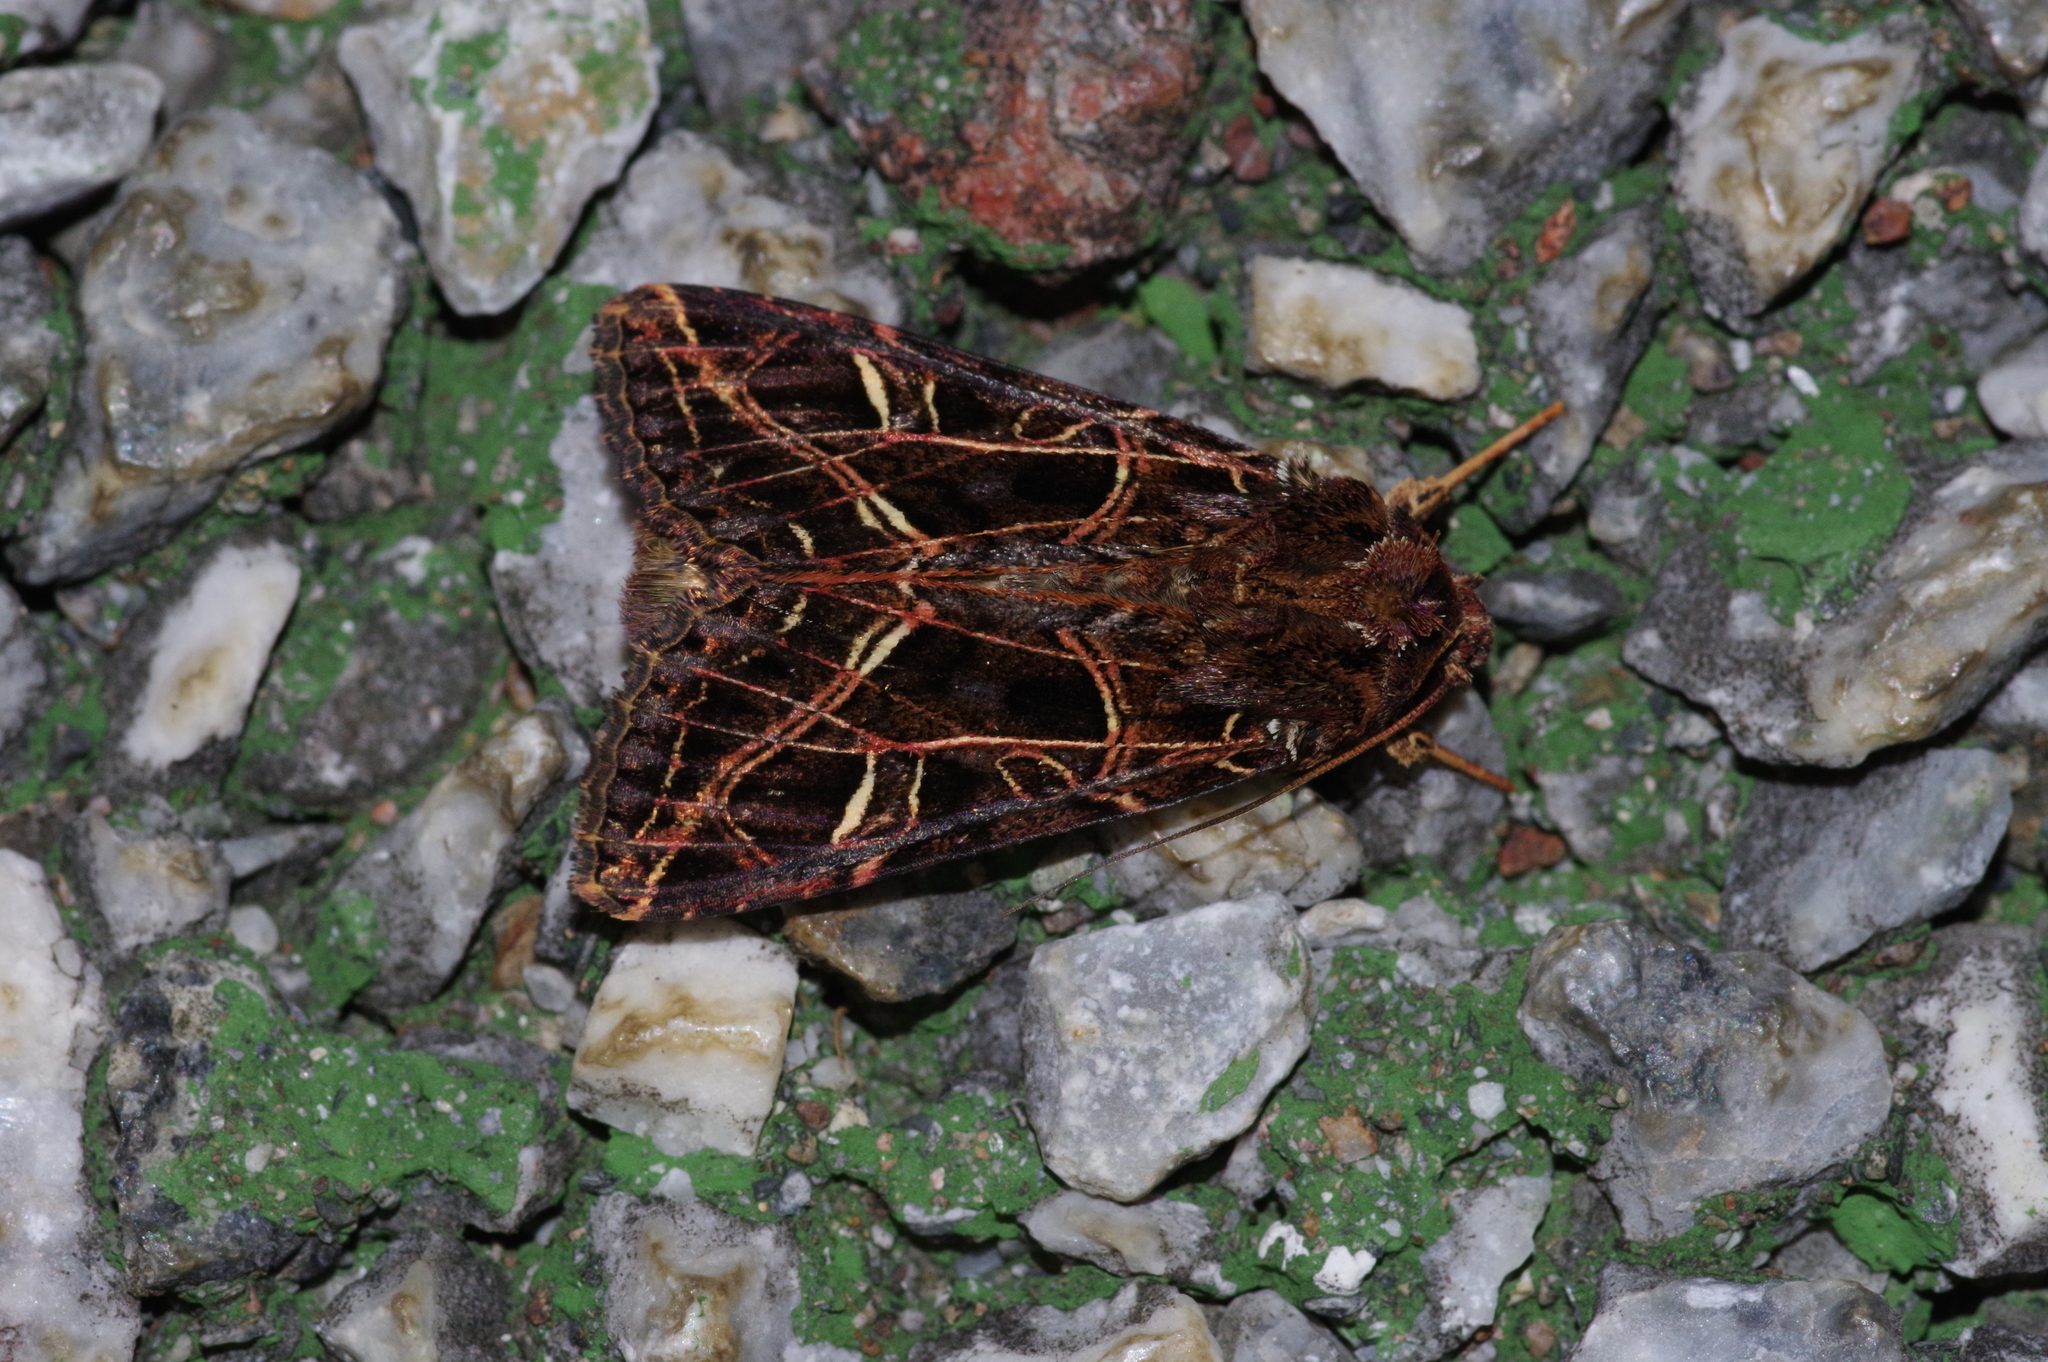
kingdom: Animalia
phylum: Arthropoda
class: Insecta
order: Lepidoptera
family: Noctuidae
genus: Dictyestra
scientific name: Dictyestra dissectus
